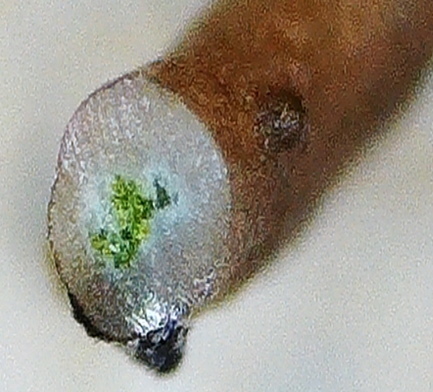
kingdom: Fungi
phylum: Ascomycota
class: Lecanoromycetes
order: Lecanorales
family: Parmeliaceae
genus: Pseudephebe
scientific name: Pseudephebe pubescens
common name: Fine rockwool lichen
